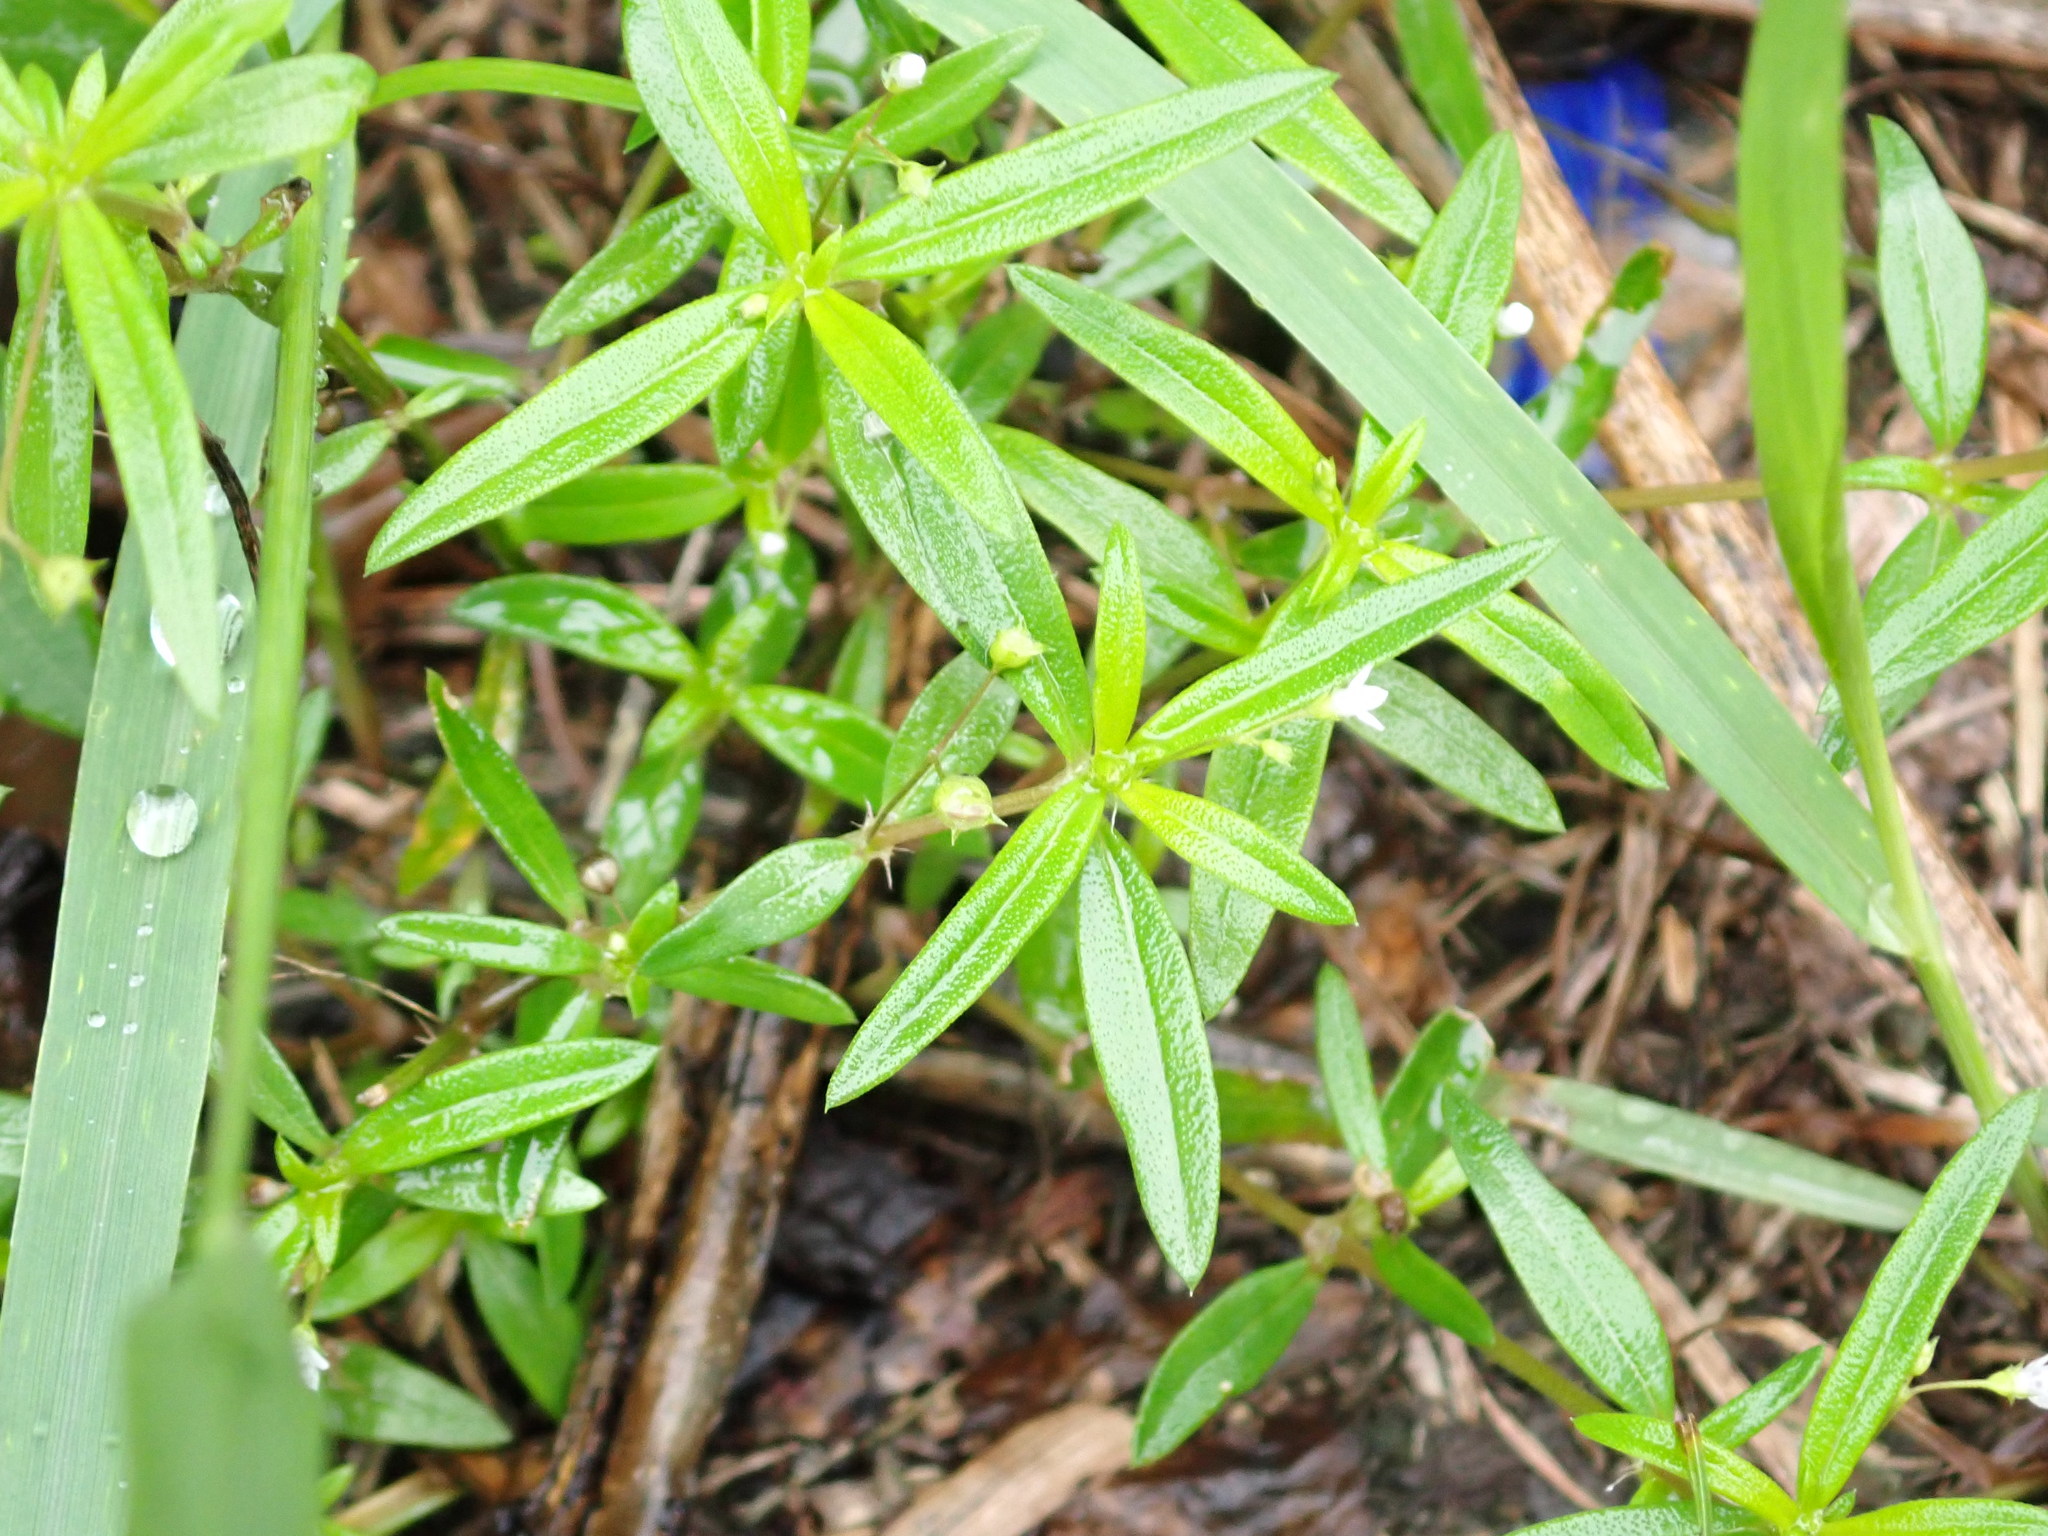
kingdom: Plantae
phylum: Tracheophyta
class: Magnoliopsida
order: Gentianales
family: Rubiaceae
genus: Oldenlandia
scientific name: Oldenlandia corymbosa
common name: Flat-top mille graines
